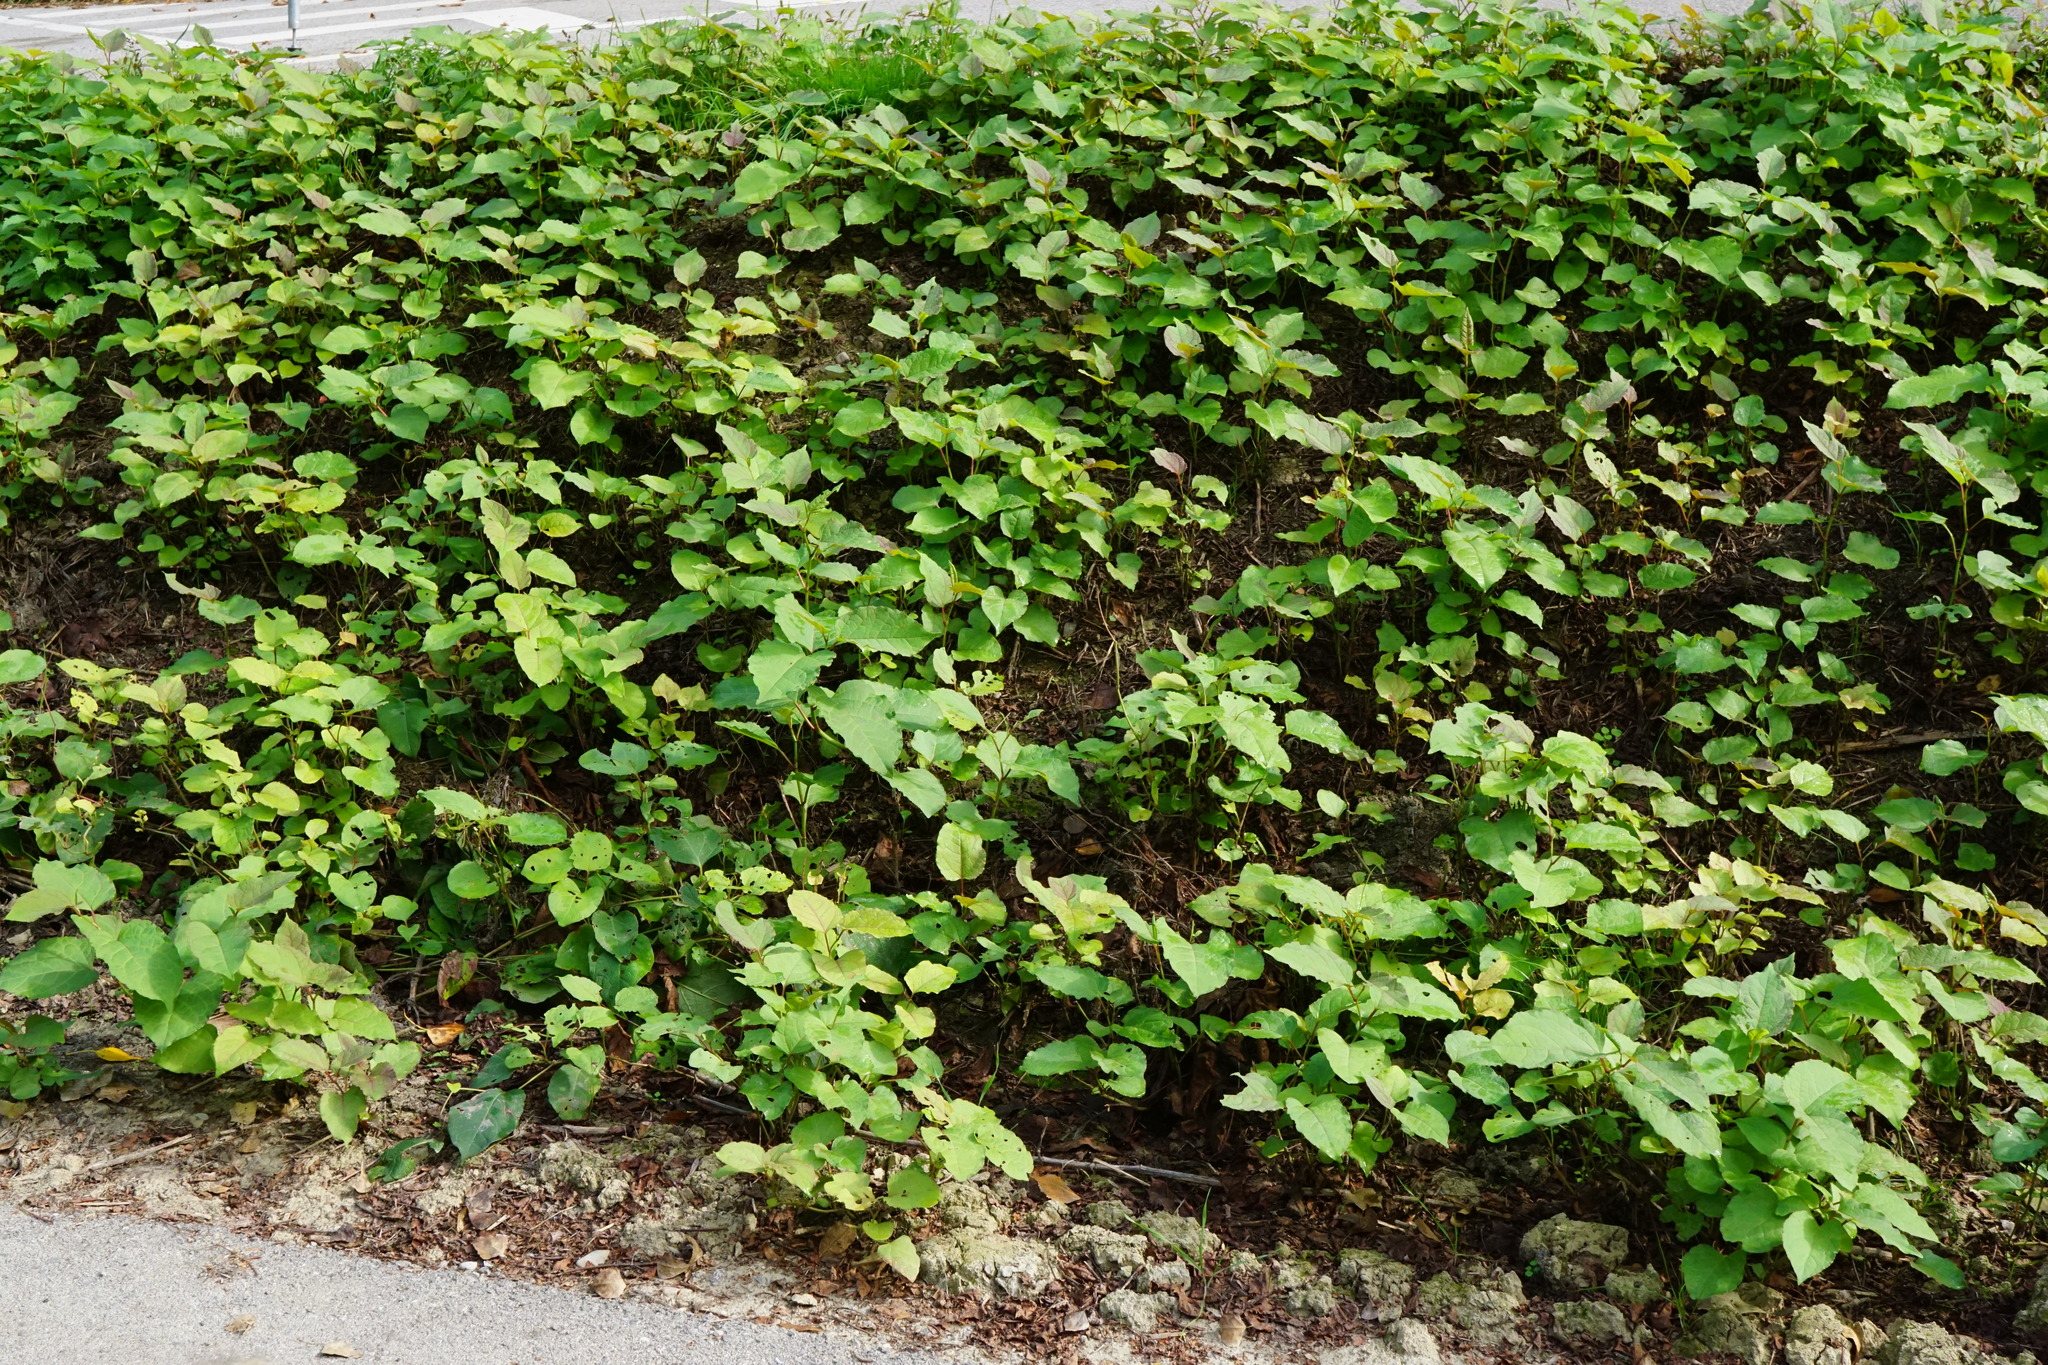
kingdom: Plantae
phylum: Tracheophyta
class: Magnoliopsida
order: Caryophyllales
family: Polygonaceae
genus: Reynoutria
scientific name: Reynoutria bohemica
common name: Bohemian knotweed
